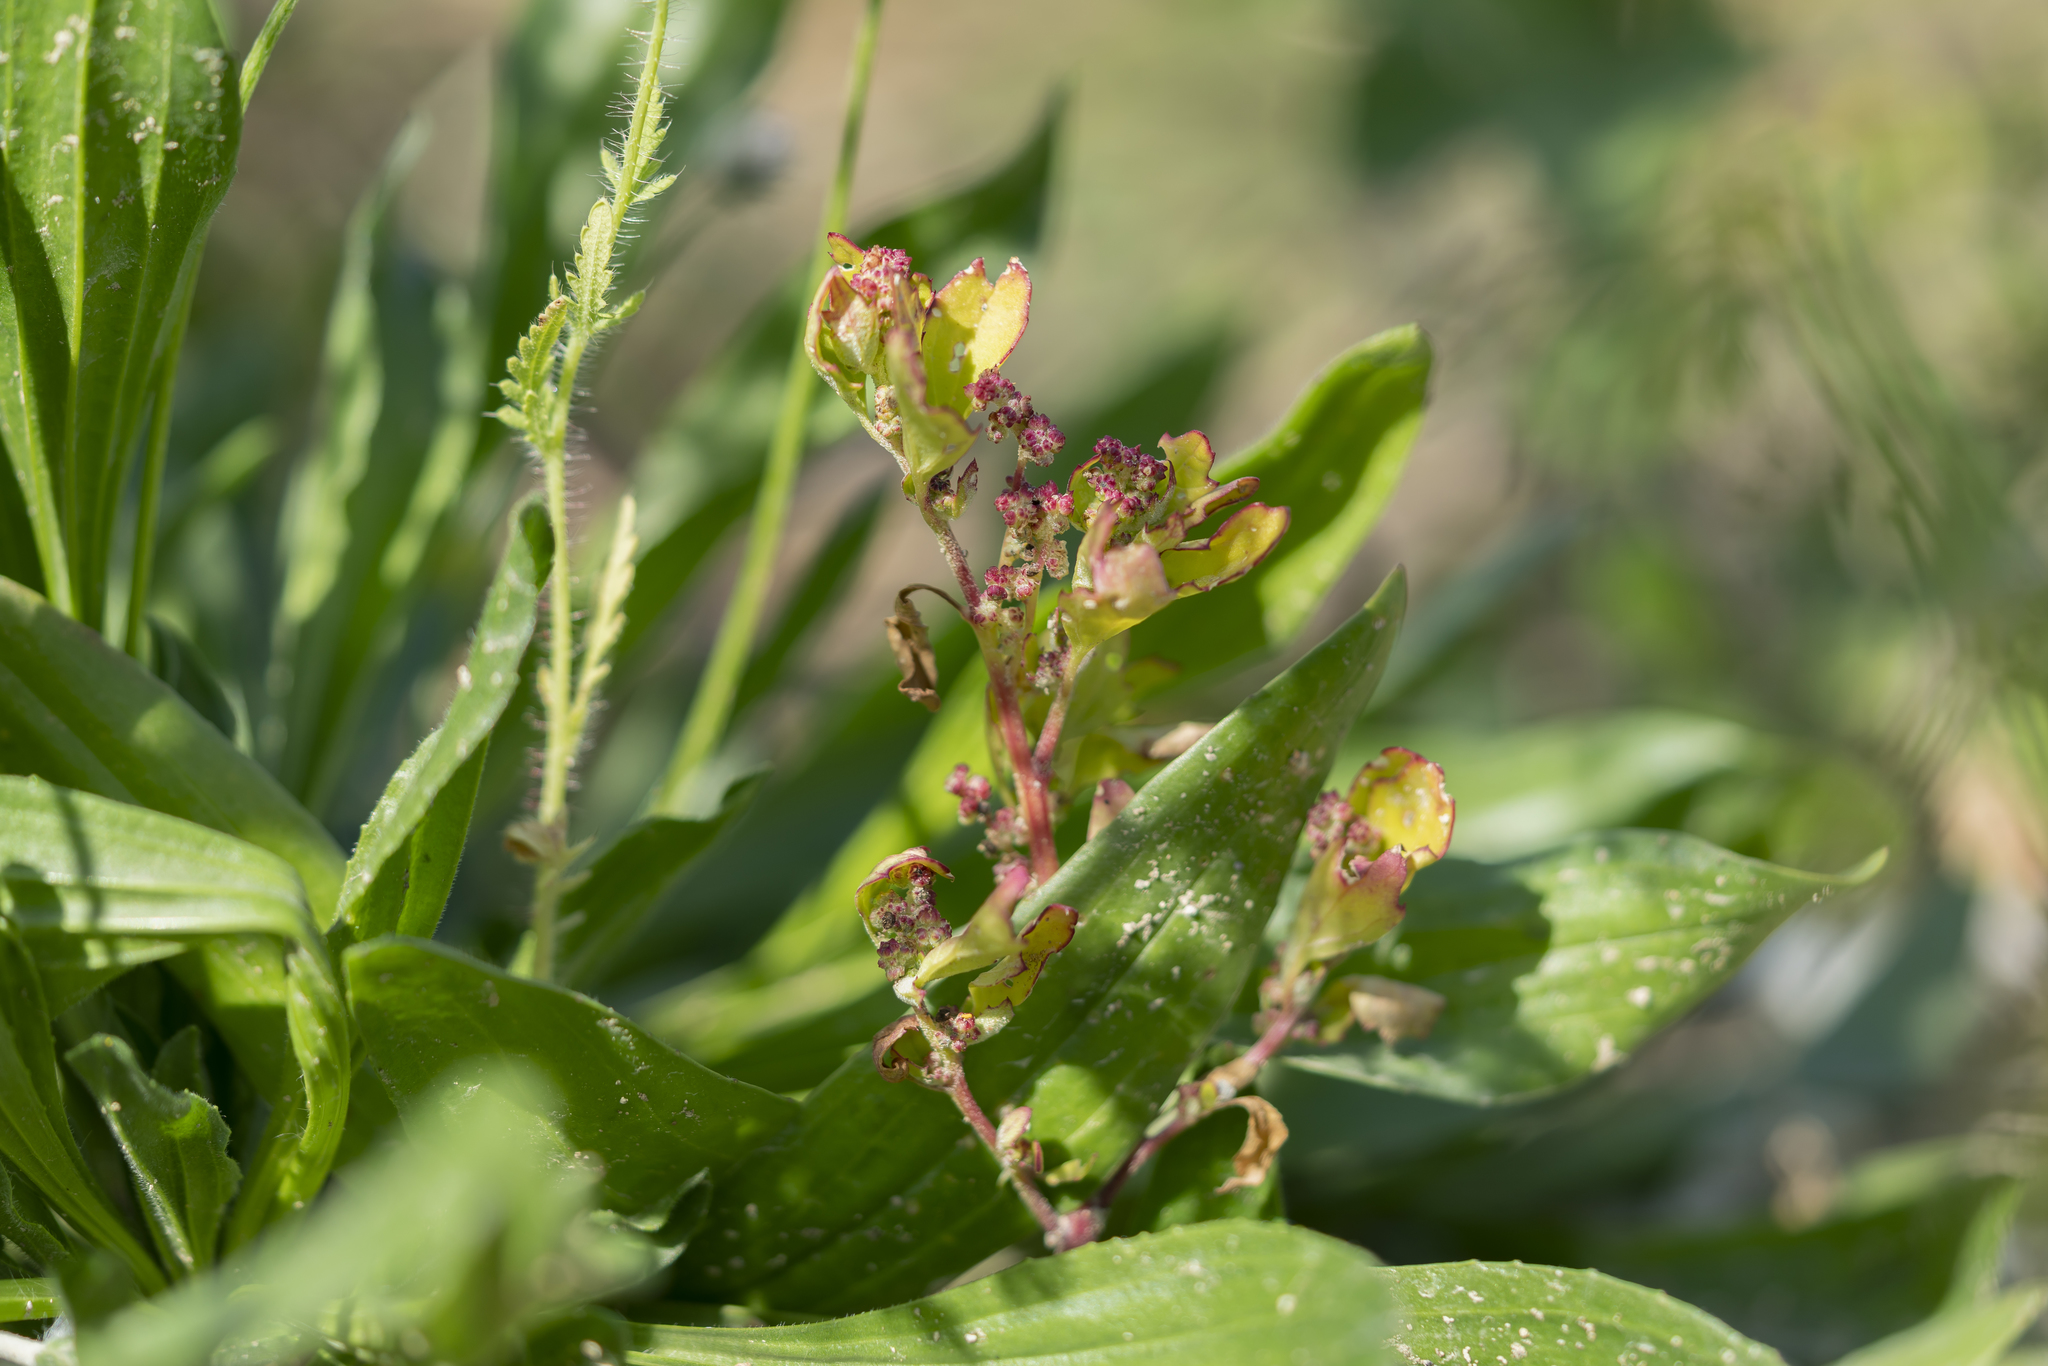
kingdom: Plantae
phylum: Tracheophyta
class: Magnoliopsida
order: Caryophyllales
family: Amaranthaceae
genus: Chenopodiastrum
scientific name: Chenopodiastrum murale
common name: Sowbane
